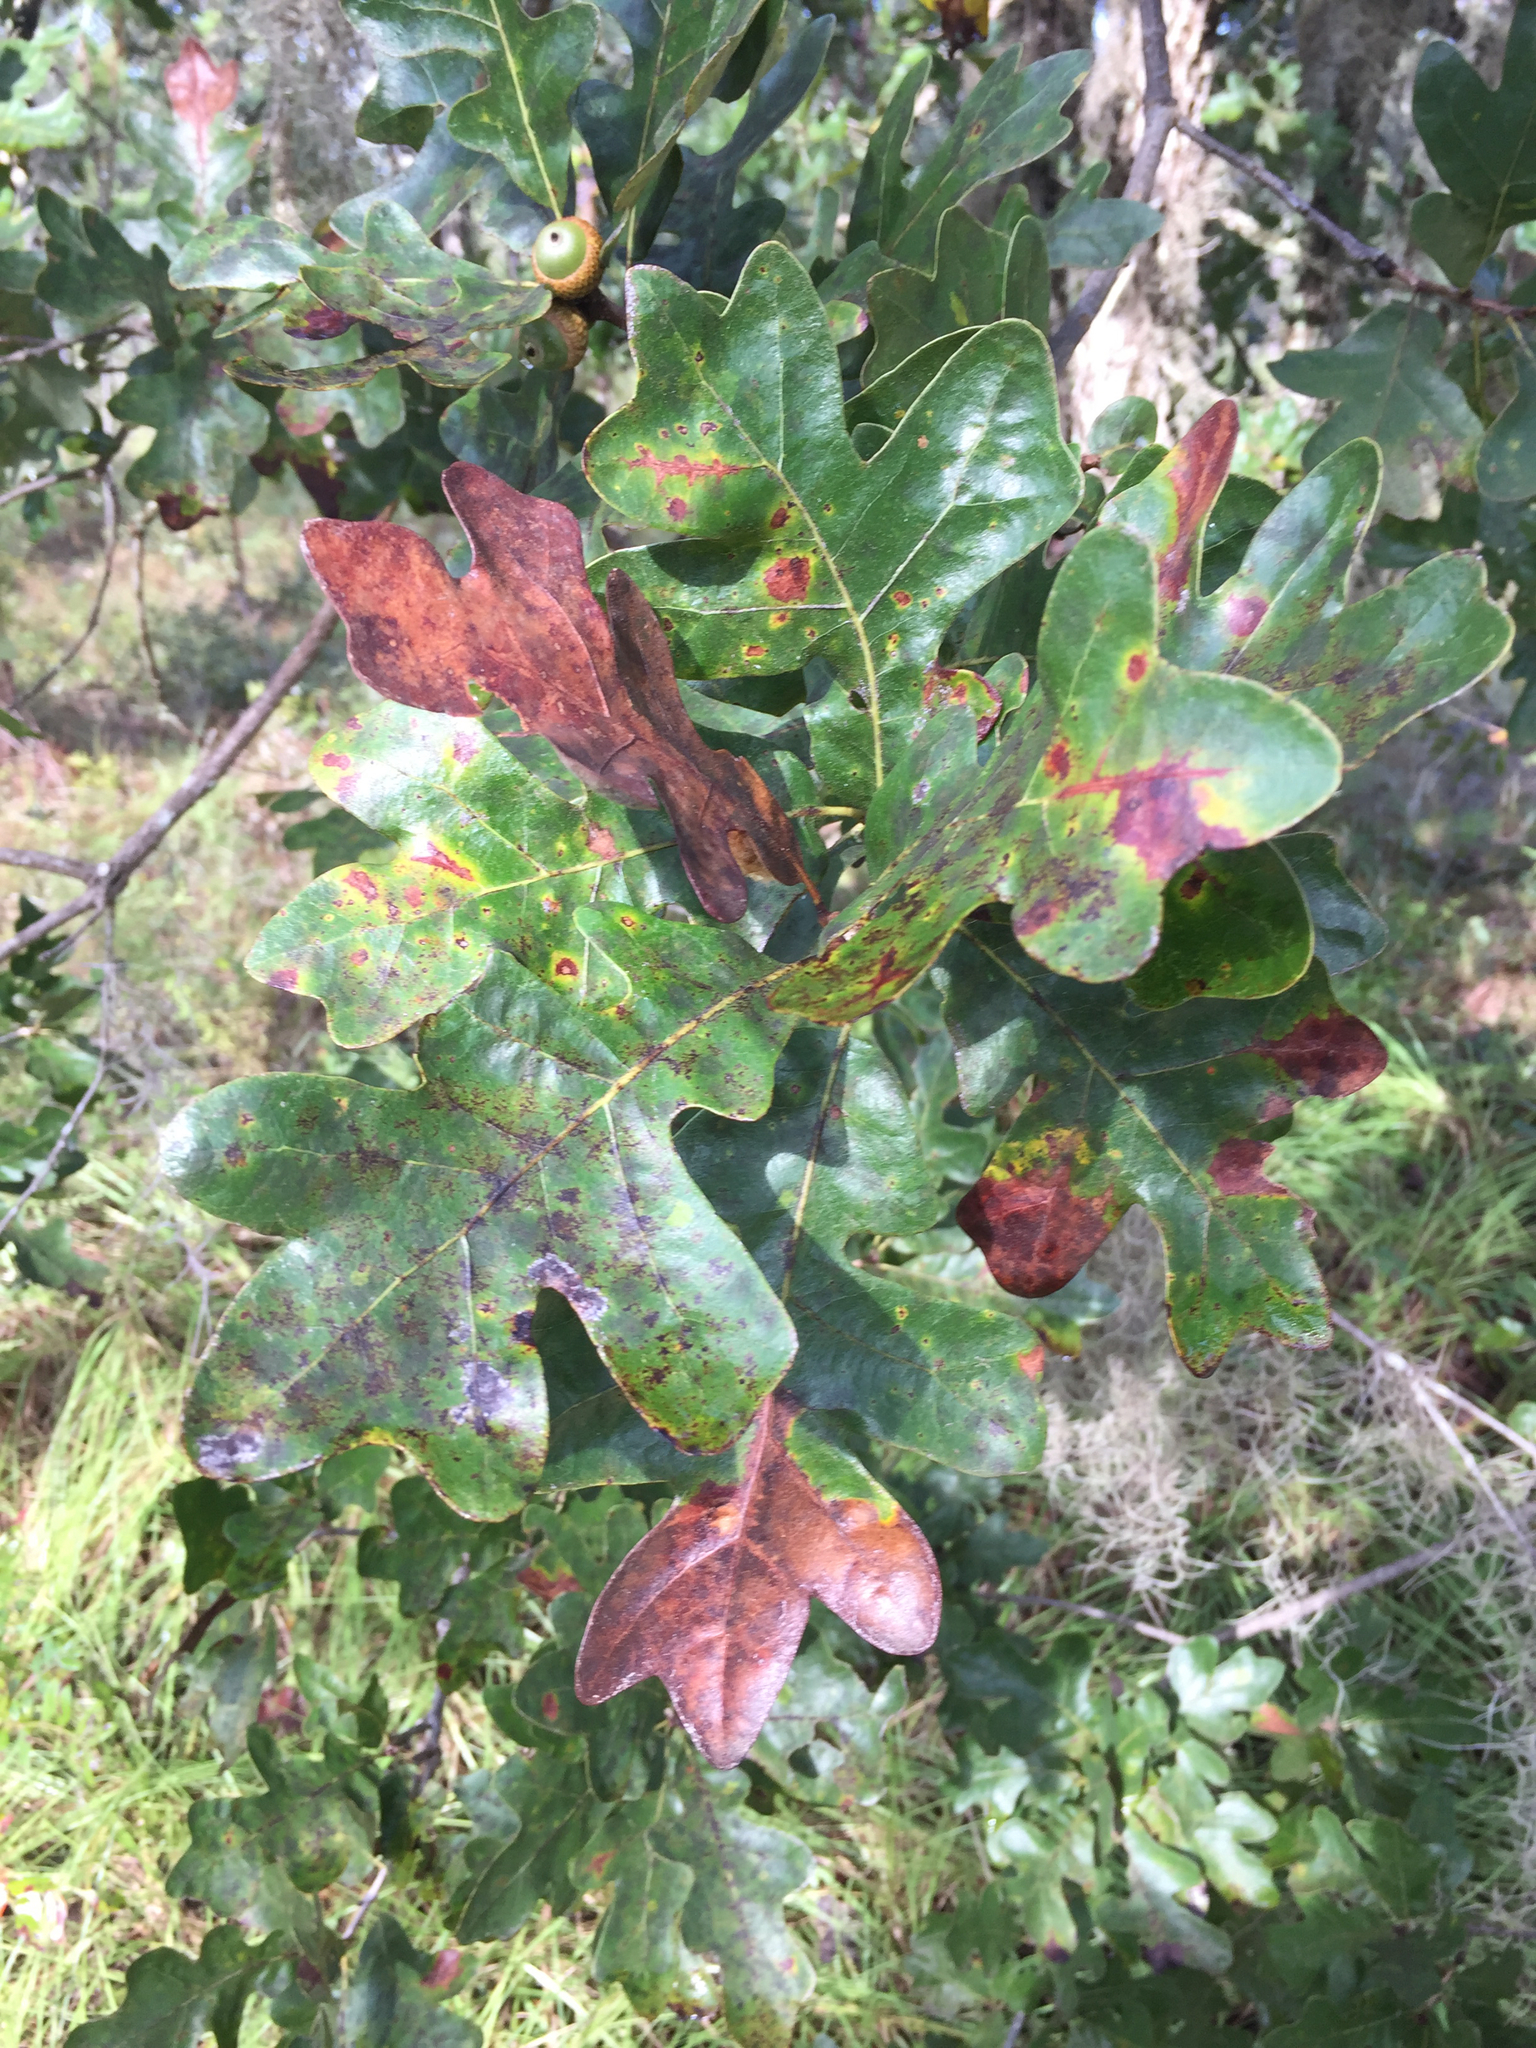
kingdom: Plantae
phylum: Tracheophyta
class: Magnoliopsida
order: Fagales
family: Fagaceae
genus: Quercus
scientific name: Quercus margaretiae
